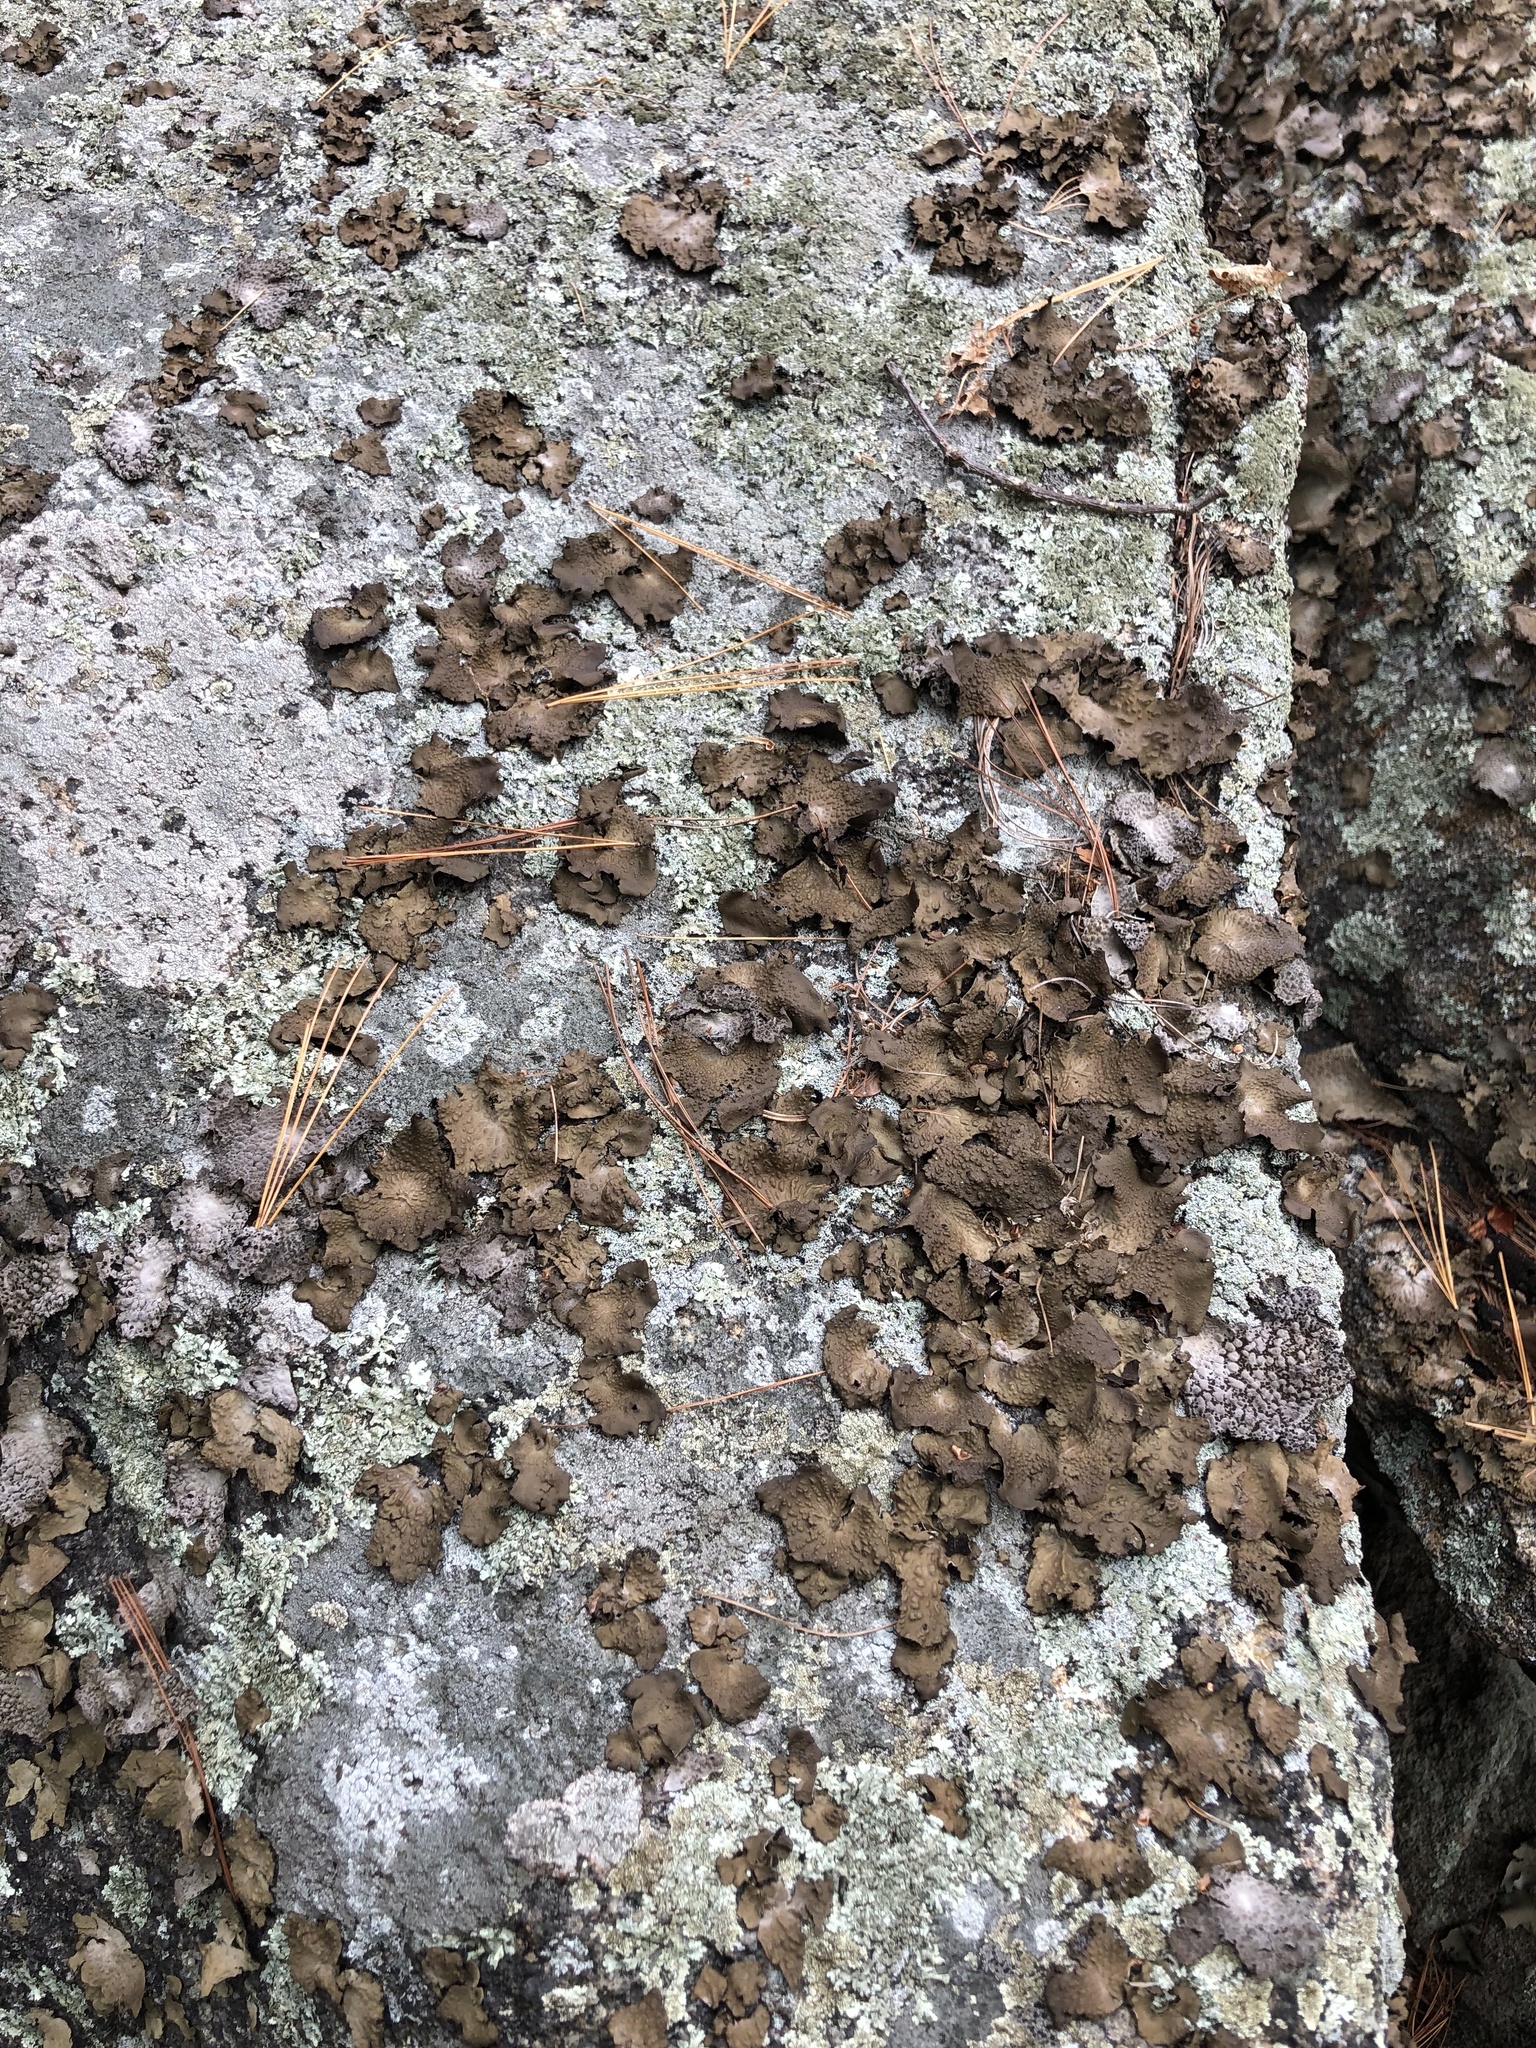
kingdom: Fungi
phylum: Ascomycota
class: Lecanoromycetes
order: Umbilicariales
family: Umbilicariaceae
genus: Lasallia
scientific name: Lasallia pensylvanica
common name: Blackened toadskin lichen
